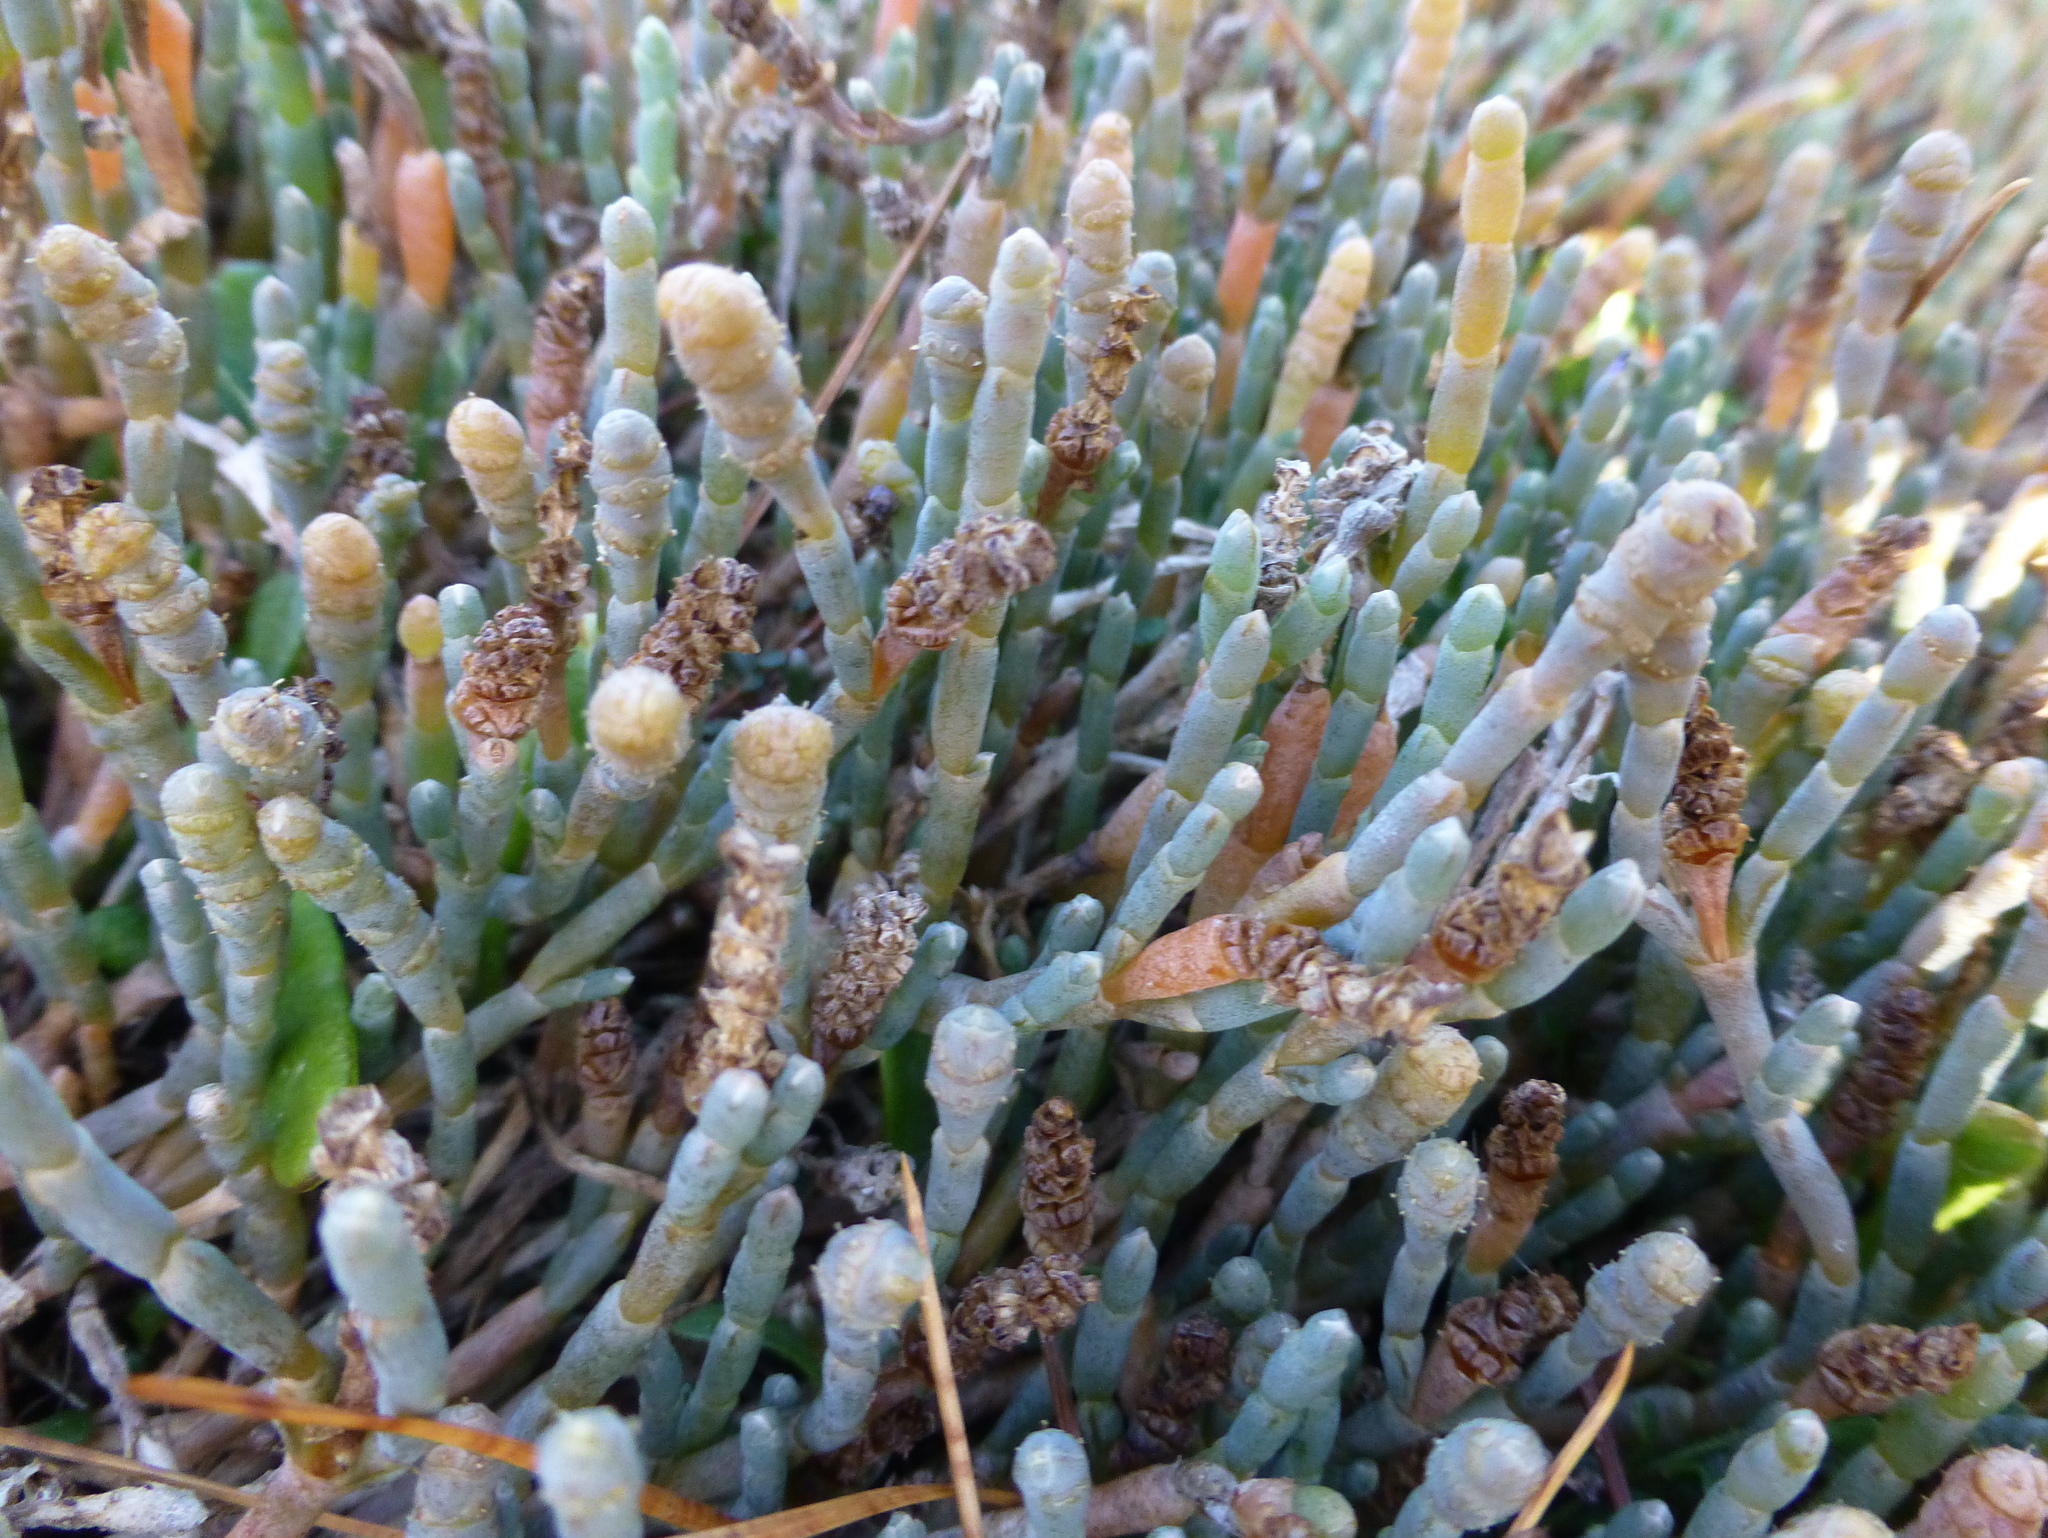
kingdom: Plantae
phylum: Tracheophyta
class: Magnoliopsida
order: Caryophyllales
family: Amaranthaceae
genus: Salicornia
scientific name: Salicornia quinqueflora
